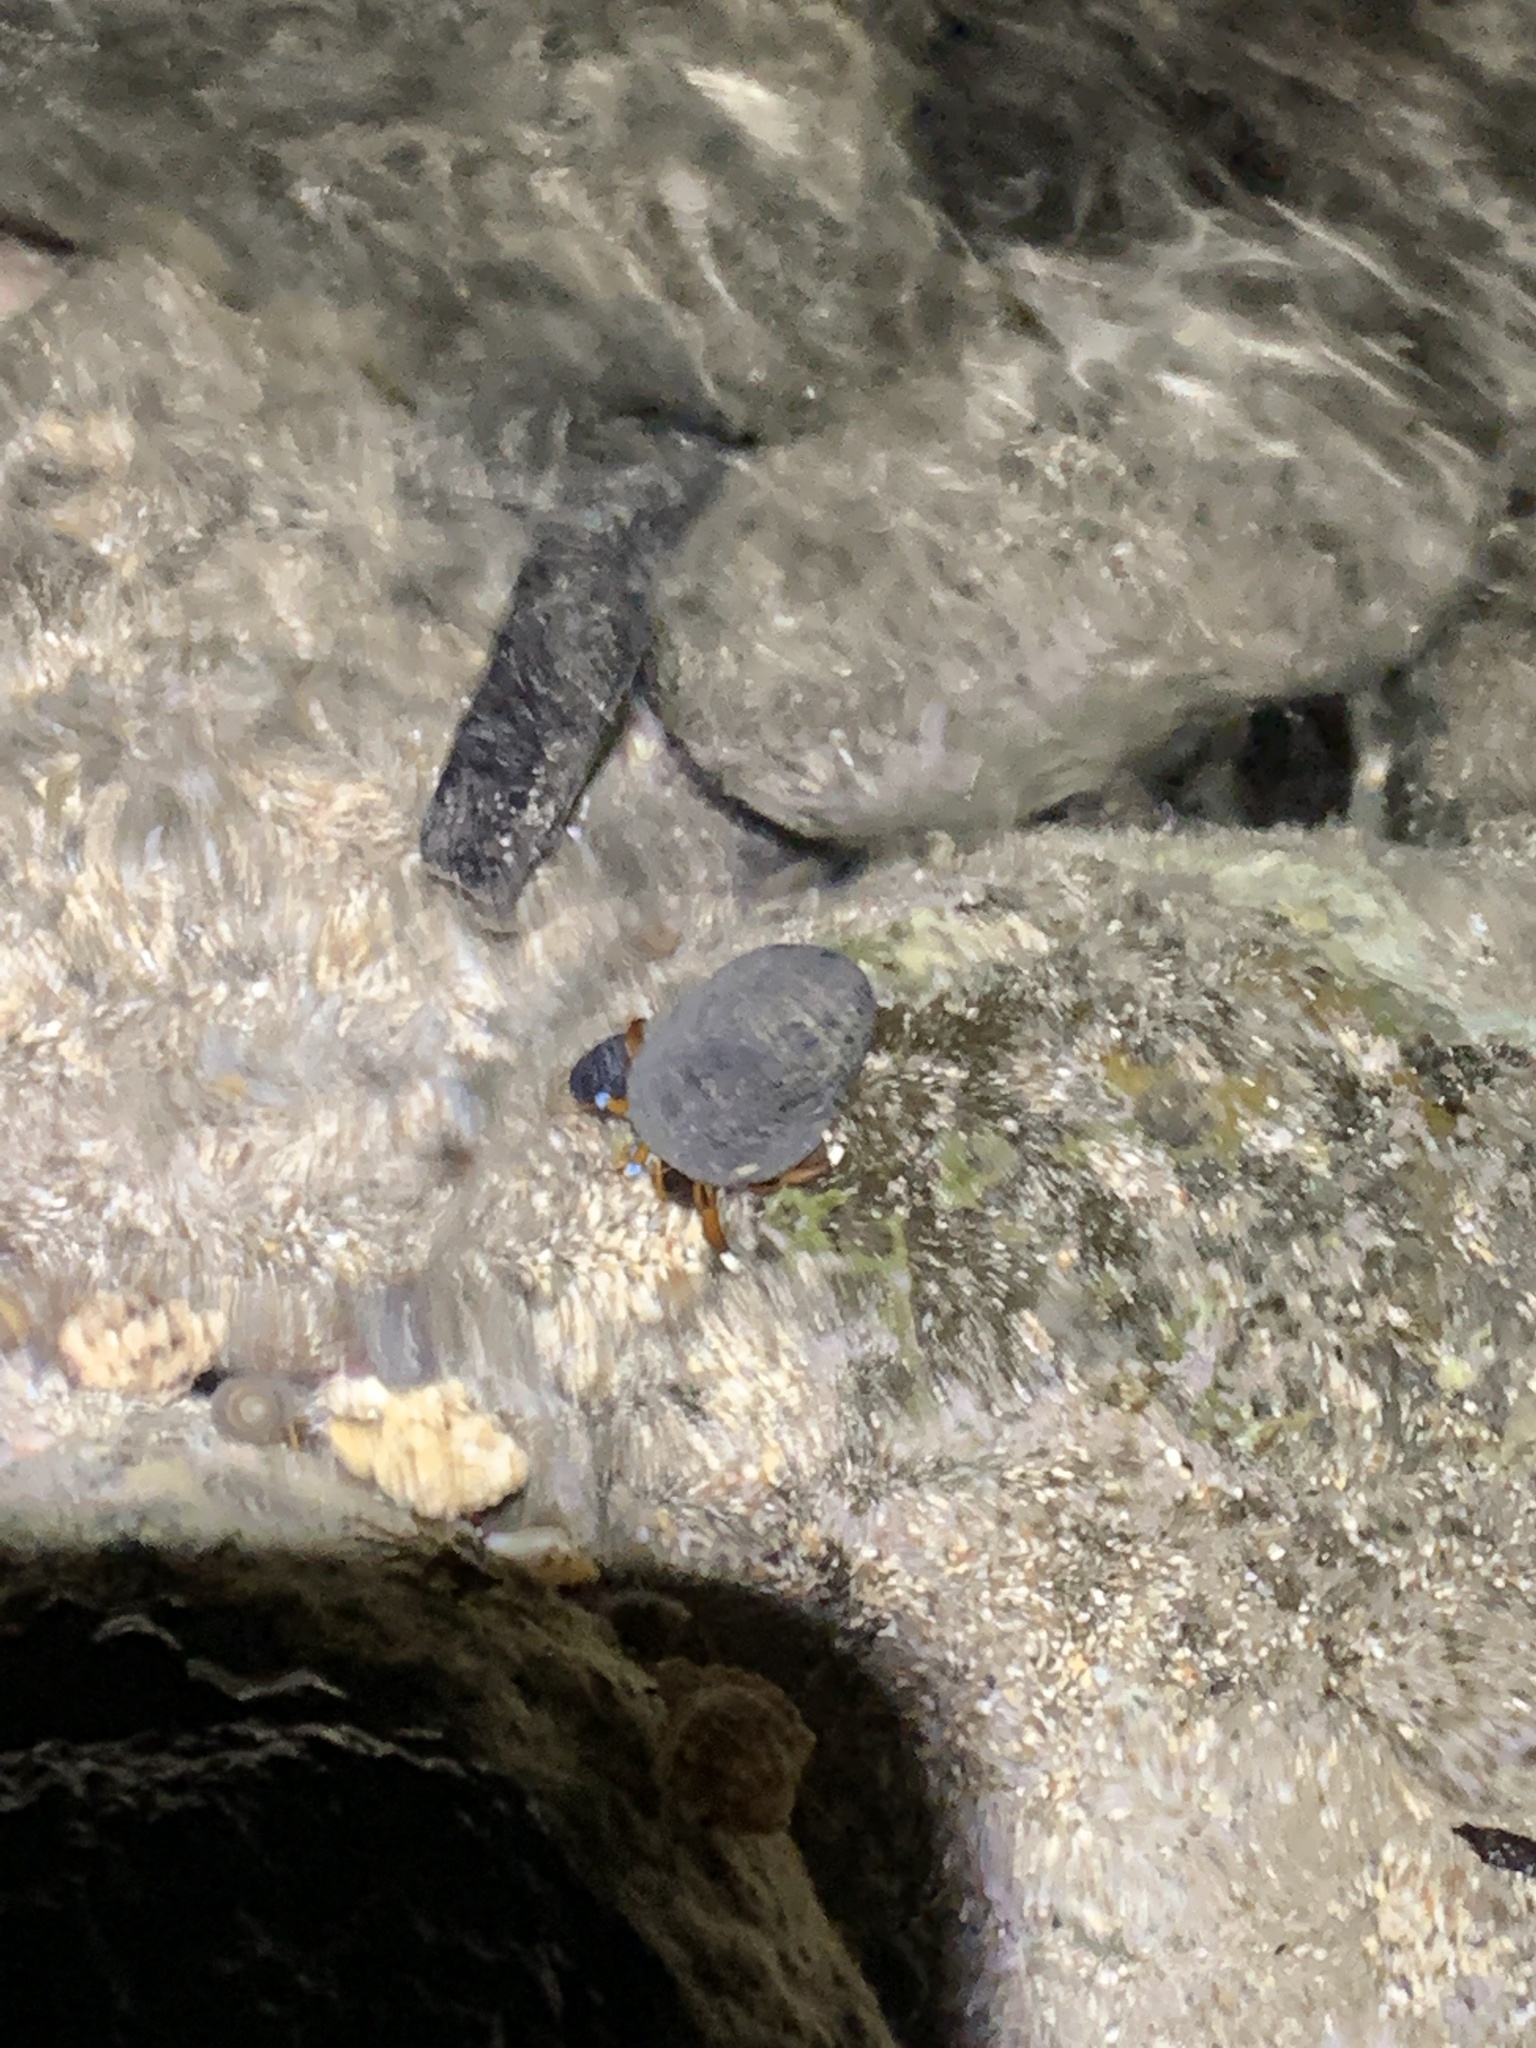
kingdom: Animalia
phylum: Arthropoda
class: Malacostraca
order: Decapoda
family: Diogenidae
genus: Calcinus
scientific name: Calcinus laevimanus
